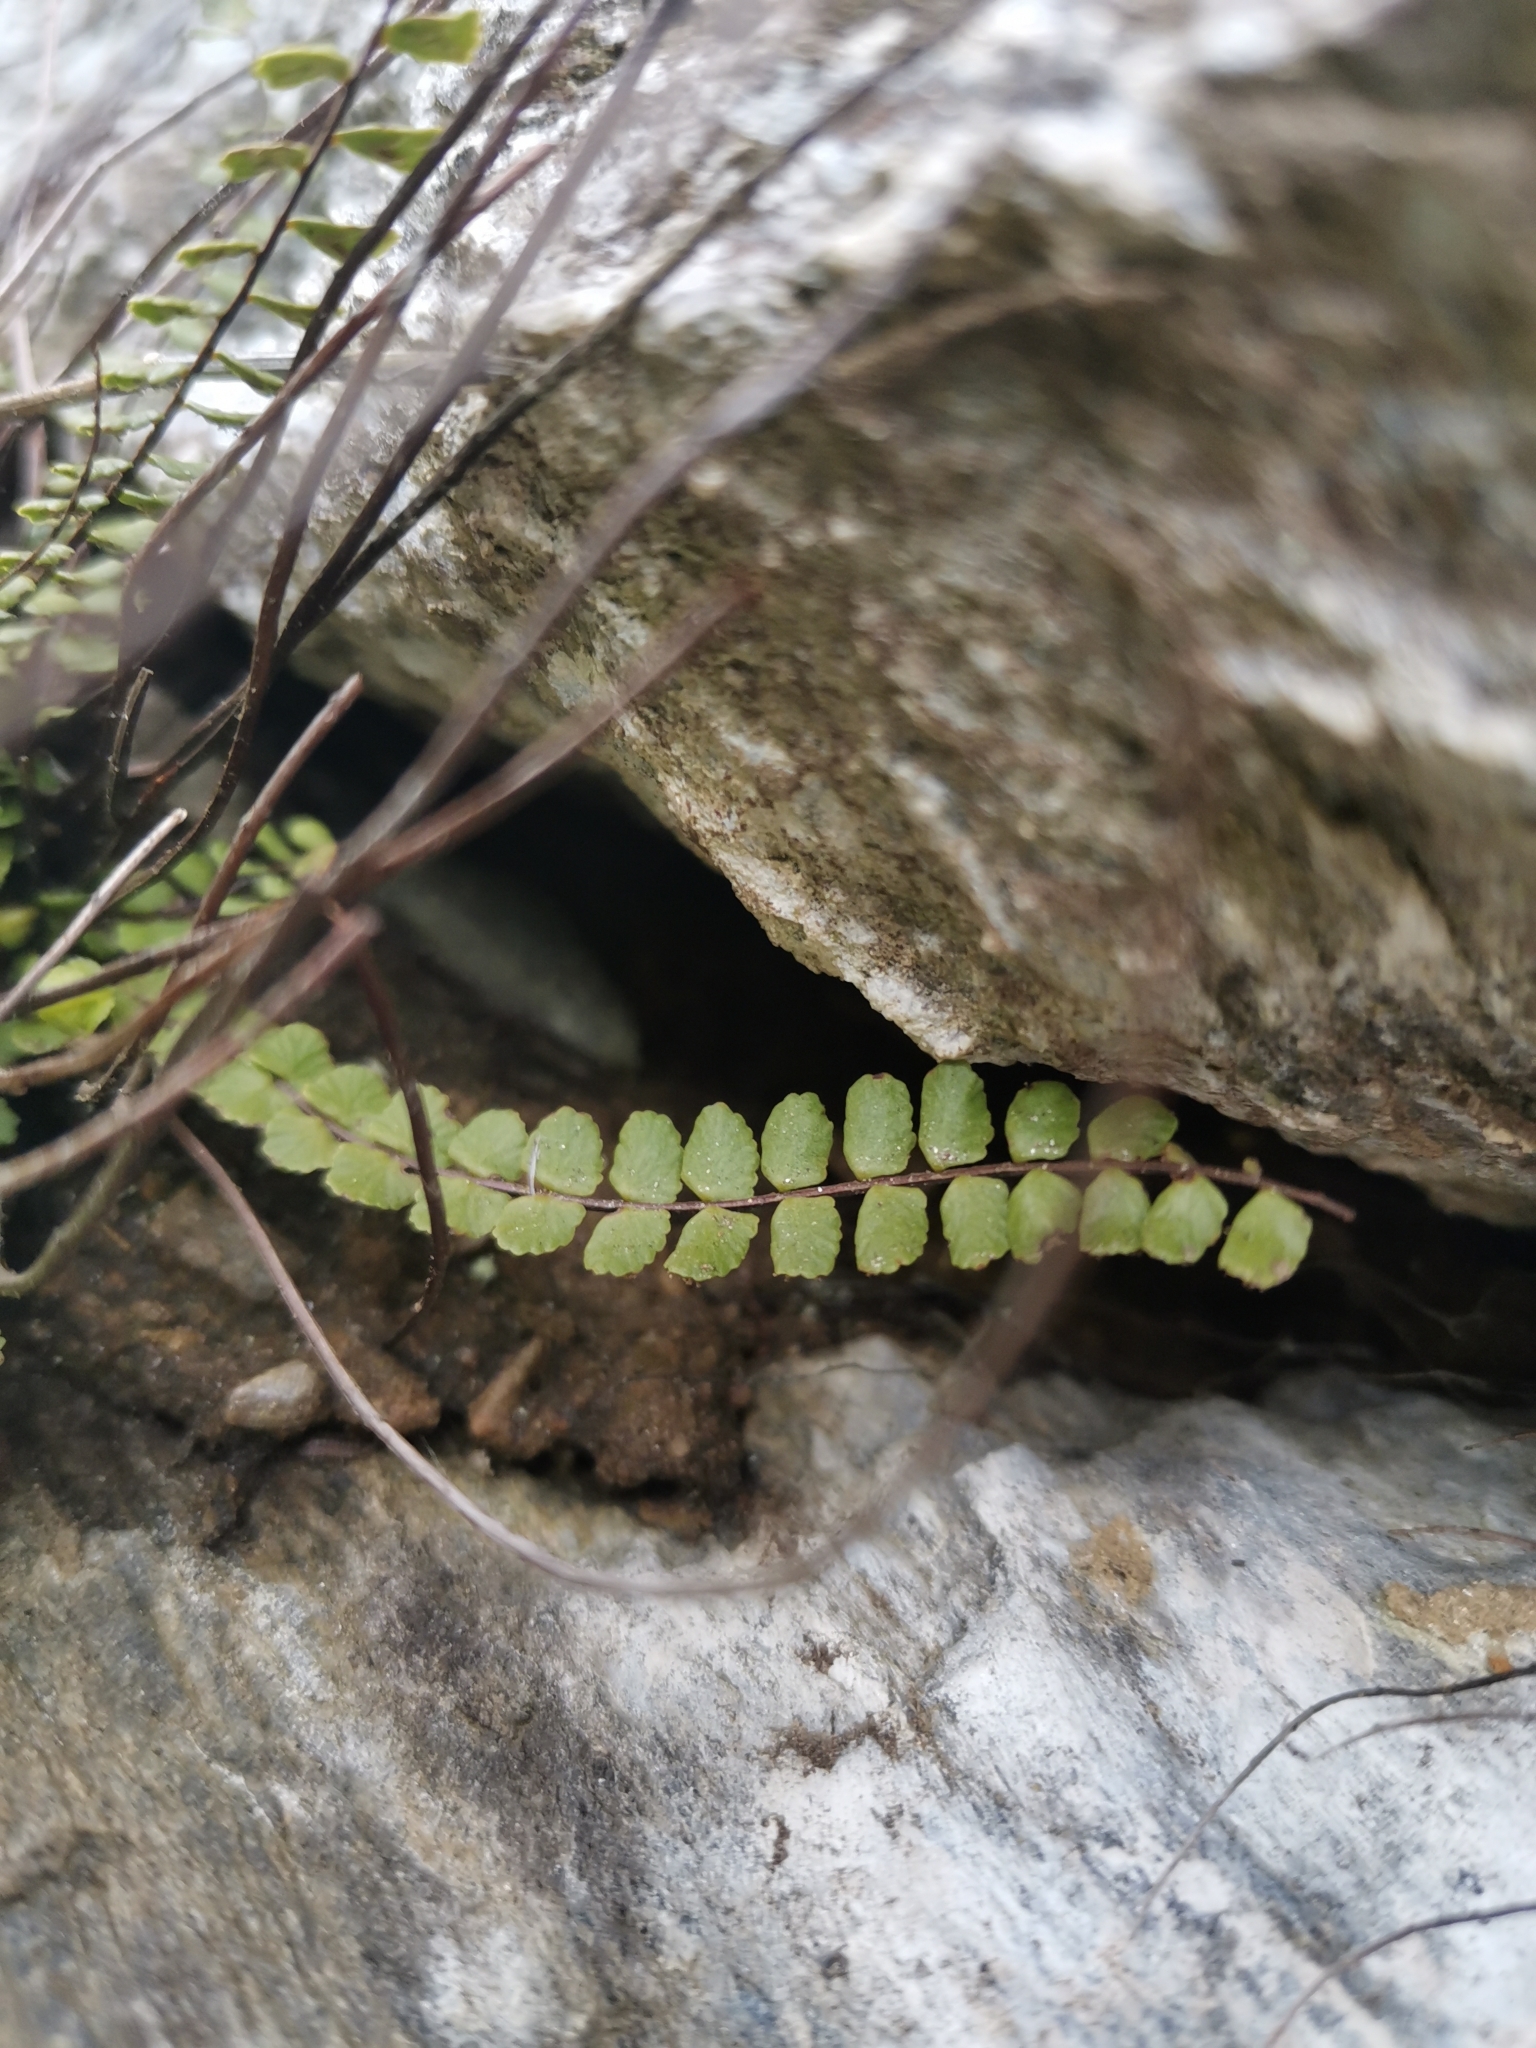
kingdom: Plantae
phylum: Tracheophyta
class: Polypodiopsida
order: Polypodiales
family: Aspleniaceae
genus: Asplenium
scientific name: Asplenium trichomanes
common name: Maidenhair spleenwort
